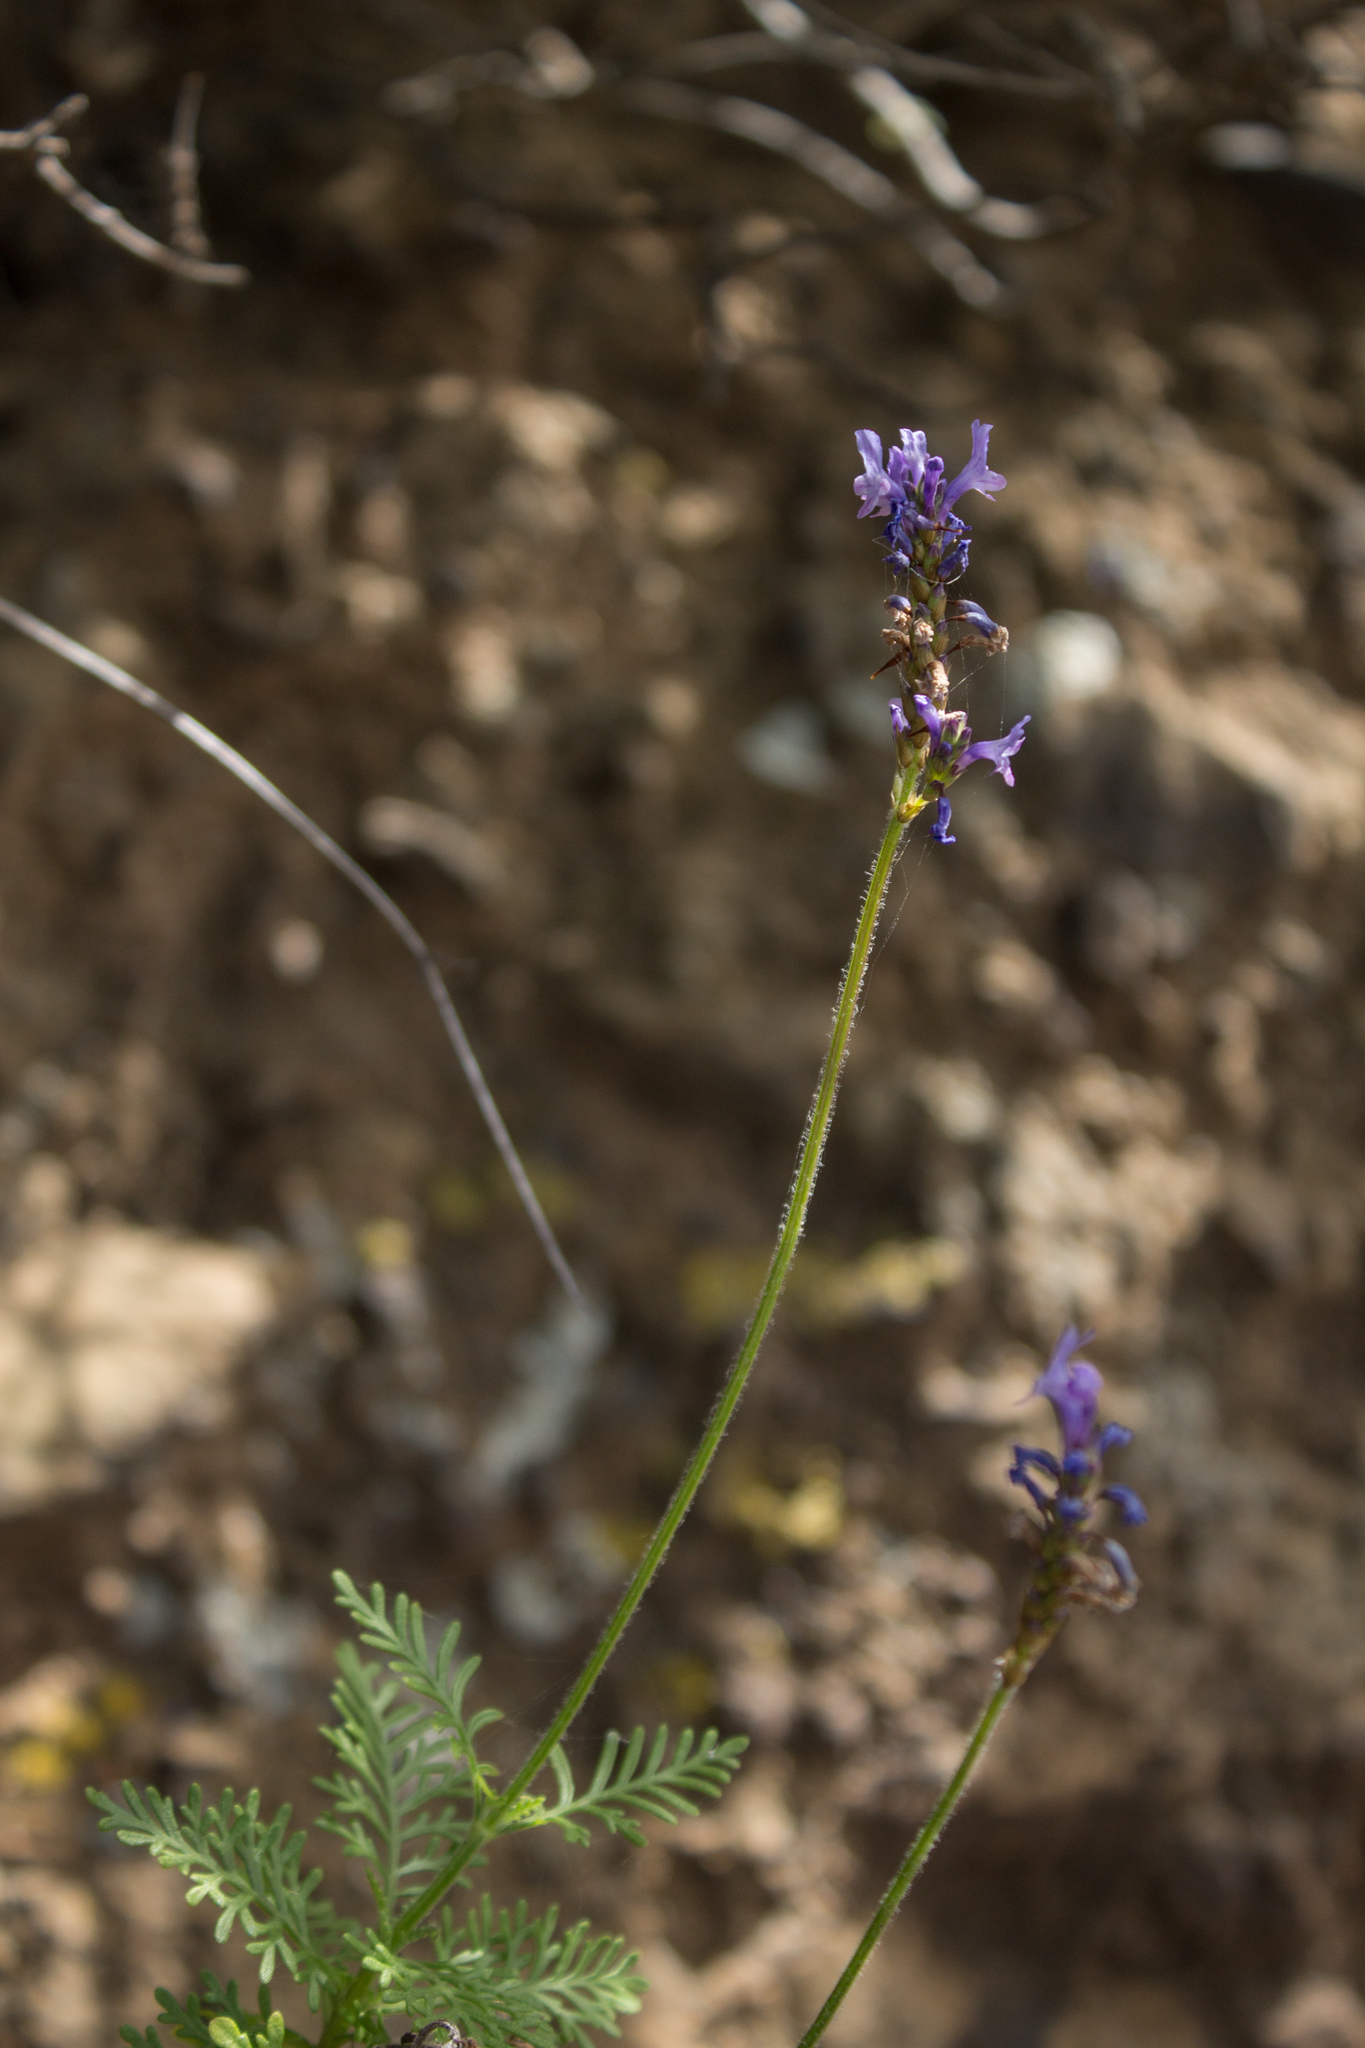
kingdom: Plantae
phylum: Tracheophyta
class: Magnoliopsida
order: Lamiales
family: Lamiaceae
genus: Lavandula
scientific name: Lavandula canariensis
